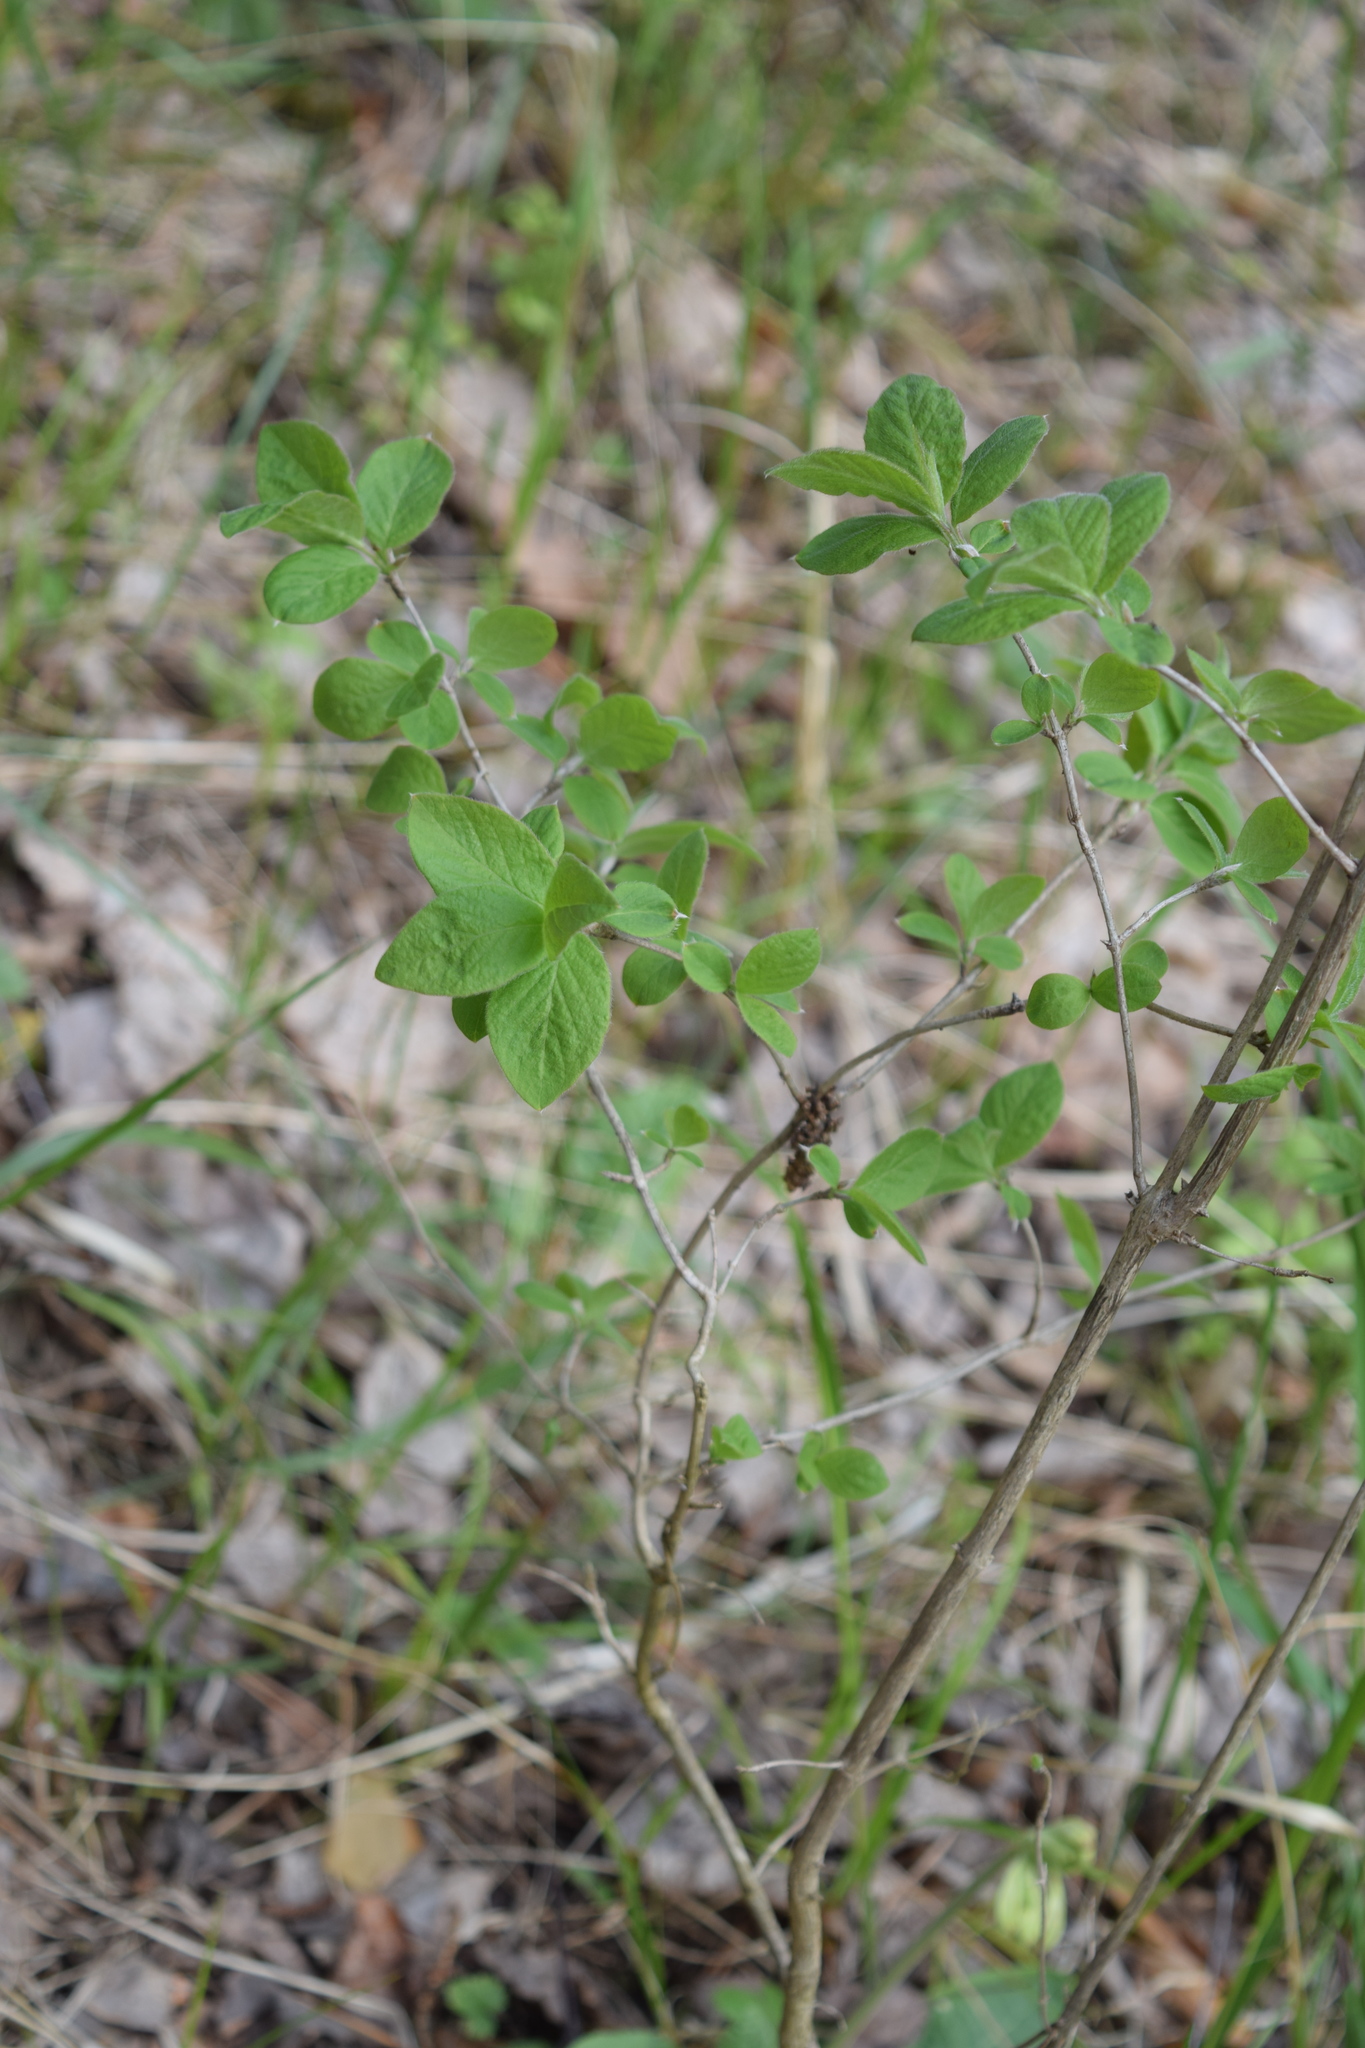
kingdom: Plantae
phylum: Tracheophyta
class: Magnoliopsida
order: Dipsacales
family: Caprifoliaceae
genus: Lonicera
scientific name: Lonicera xylosteum
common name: Fly honeysuckle
